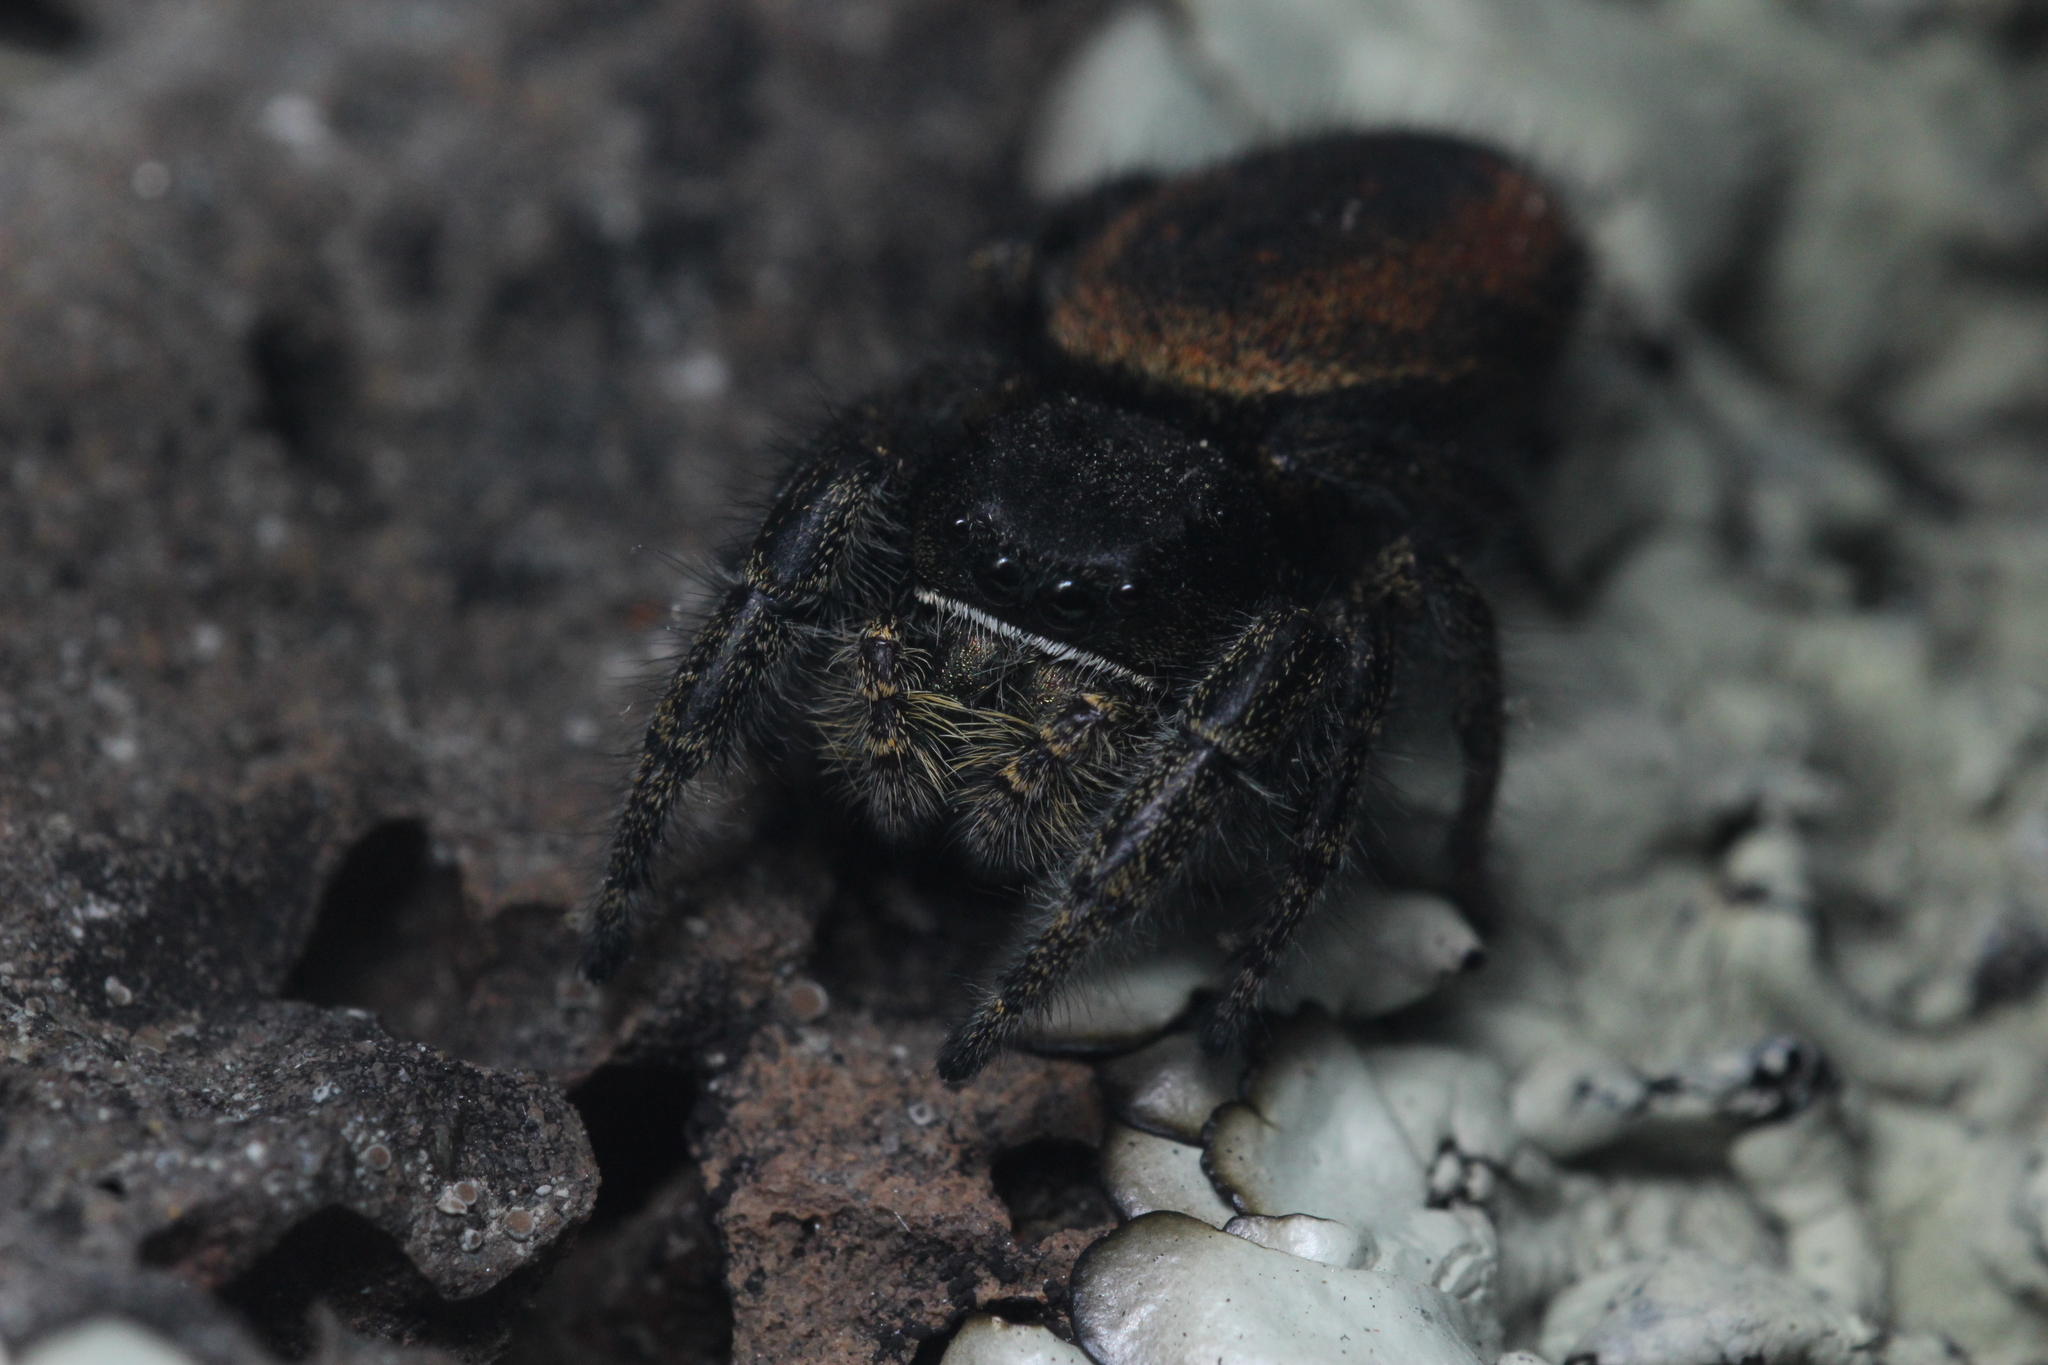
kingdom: Animalia
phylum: Arthropoda
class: Arachnida
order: Araneae
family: Salticidae
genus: Phidippus
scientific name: Phidippus johnsoni
